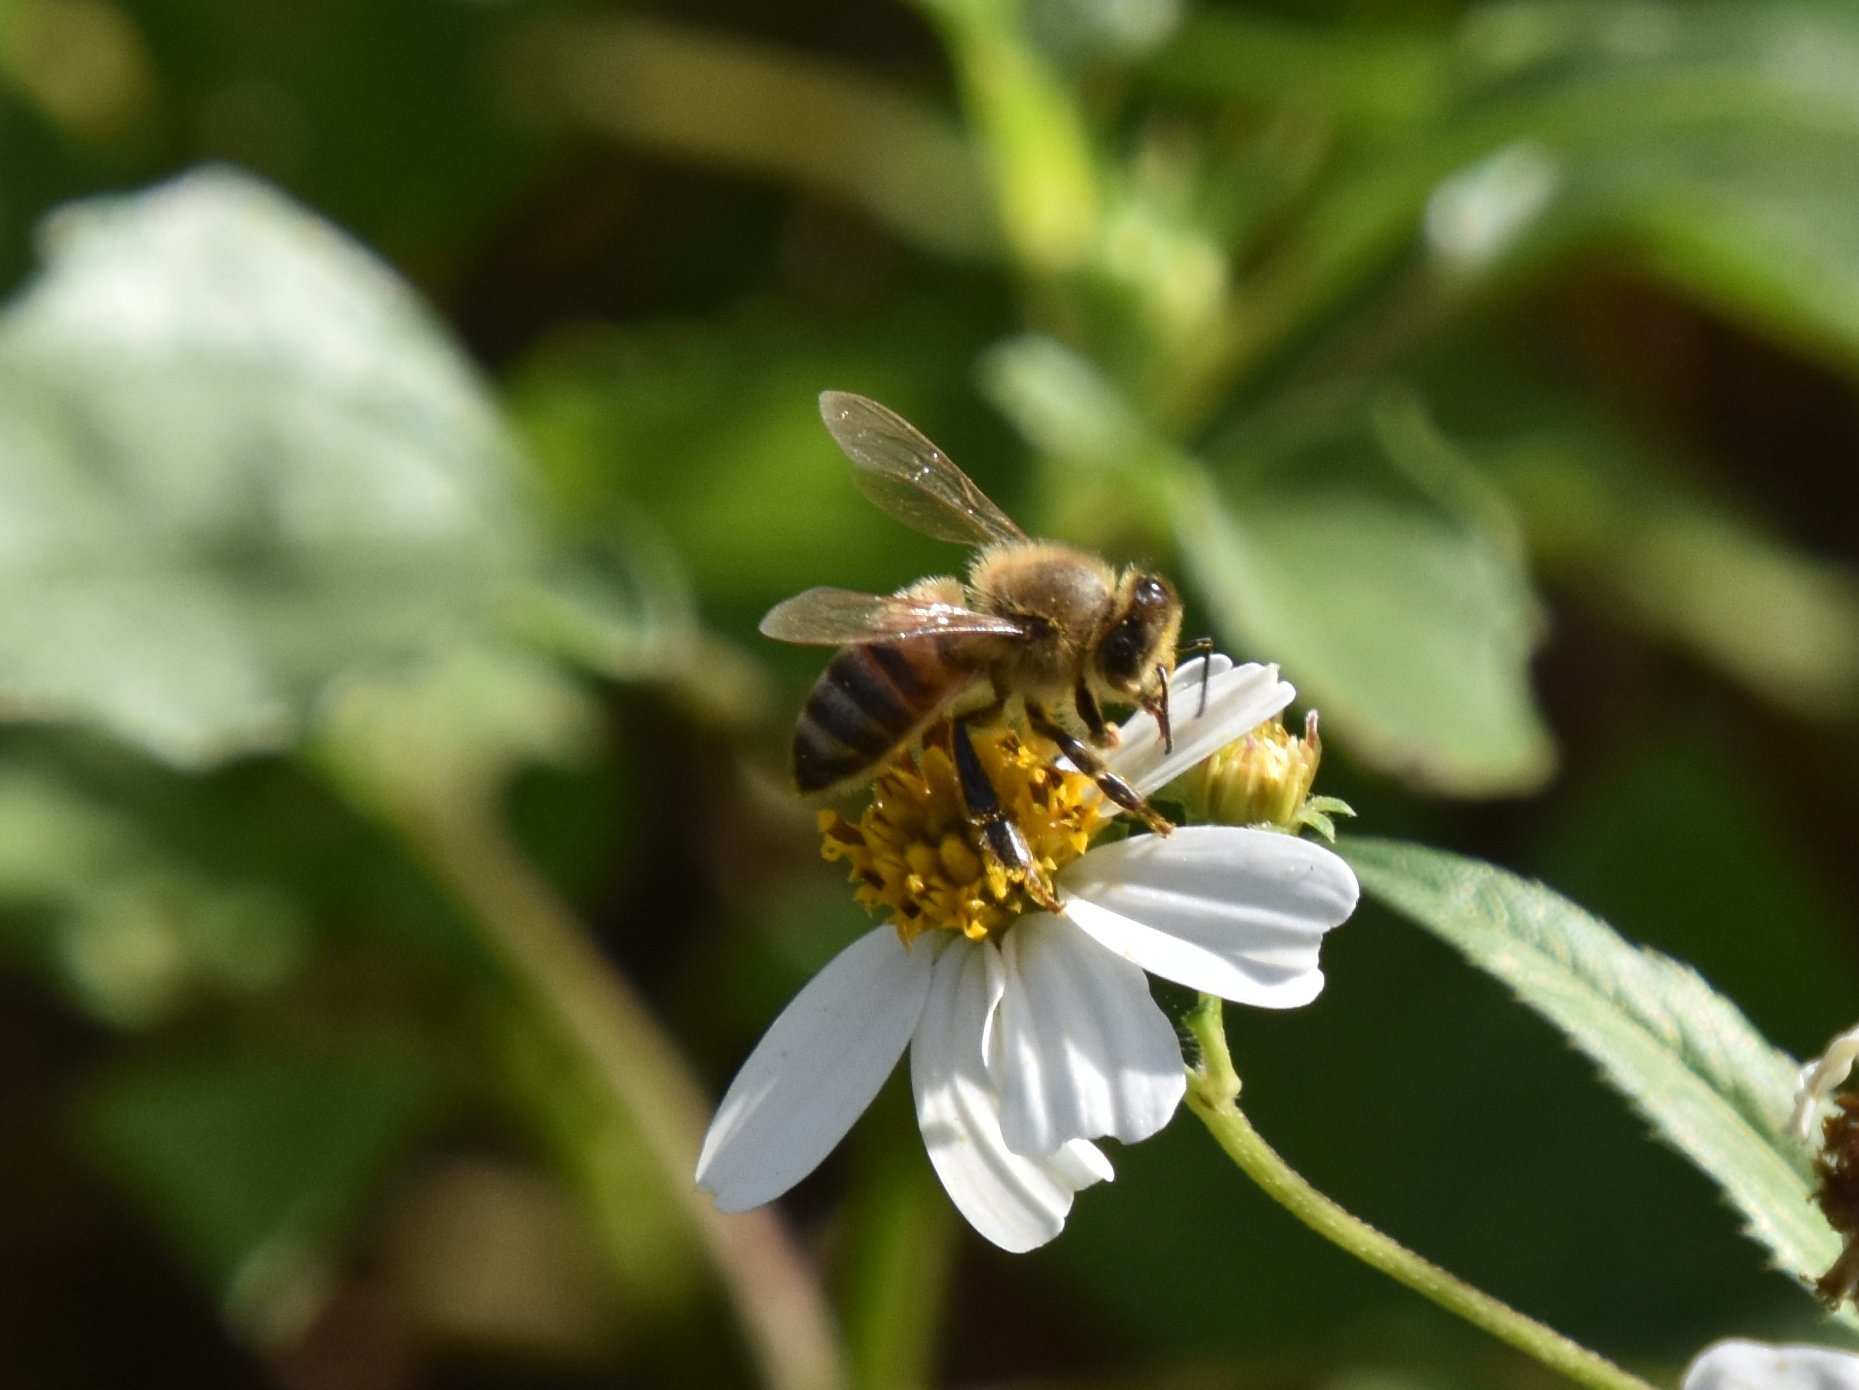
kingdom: Animalia
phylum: Arthropoda
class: Insecta
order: Hymenoptera
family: Apidae
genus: Apis
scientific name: Apis mellifera
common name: Honey bee
